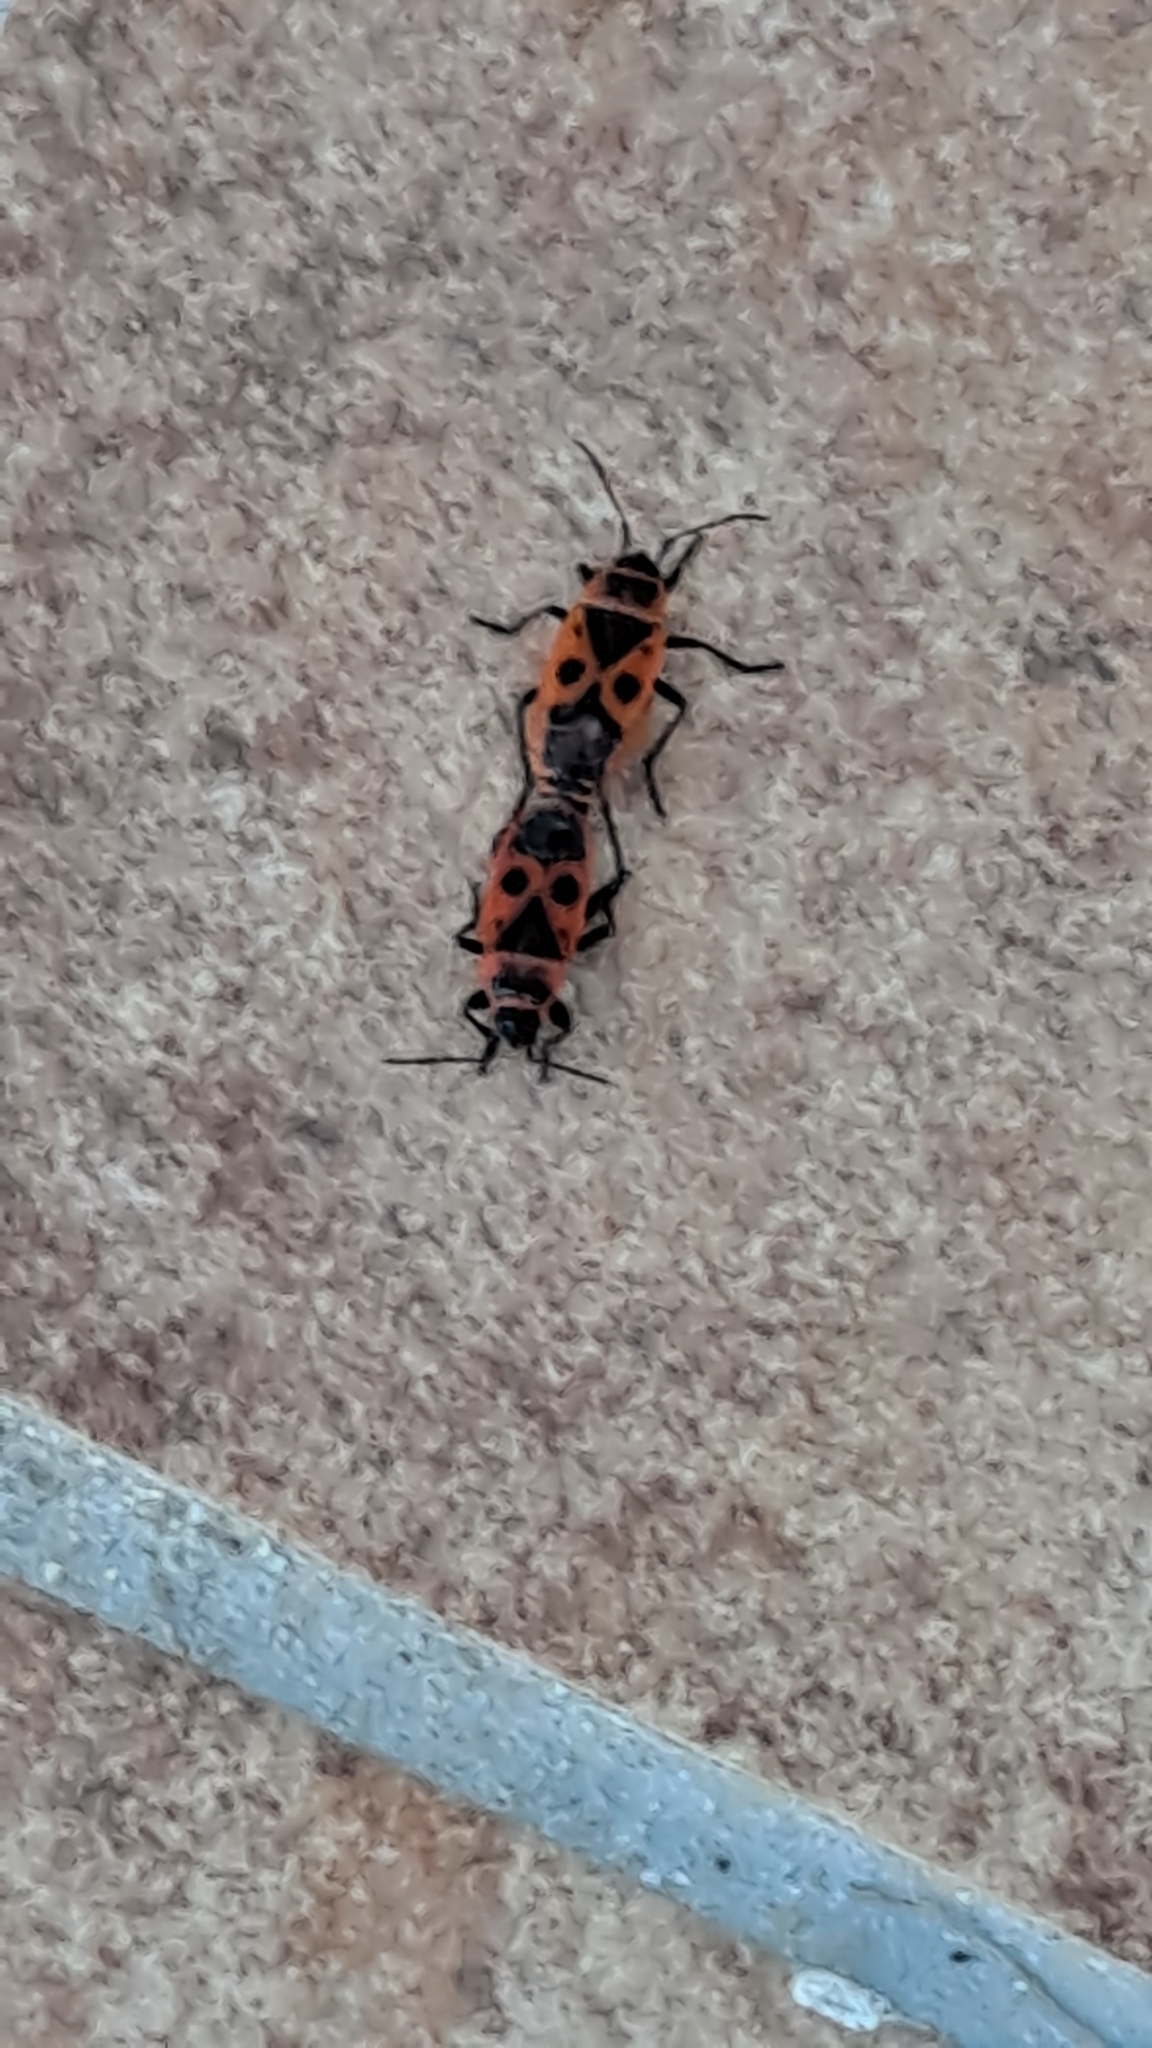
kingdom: Animalia
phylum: Arthropoda
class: Insecta
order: Hemiptera
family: Pyrrhocoridae
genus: Pyrrhocoris
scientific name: Pyrrhocoris apterus
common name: Firebug
